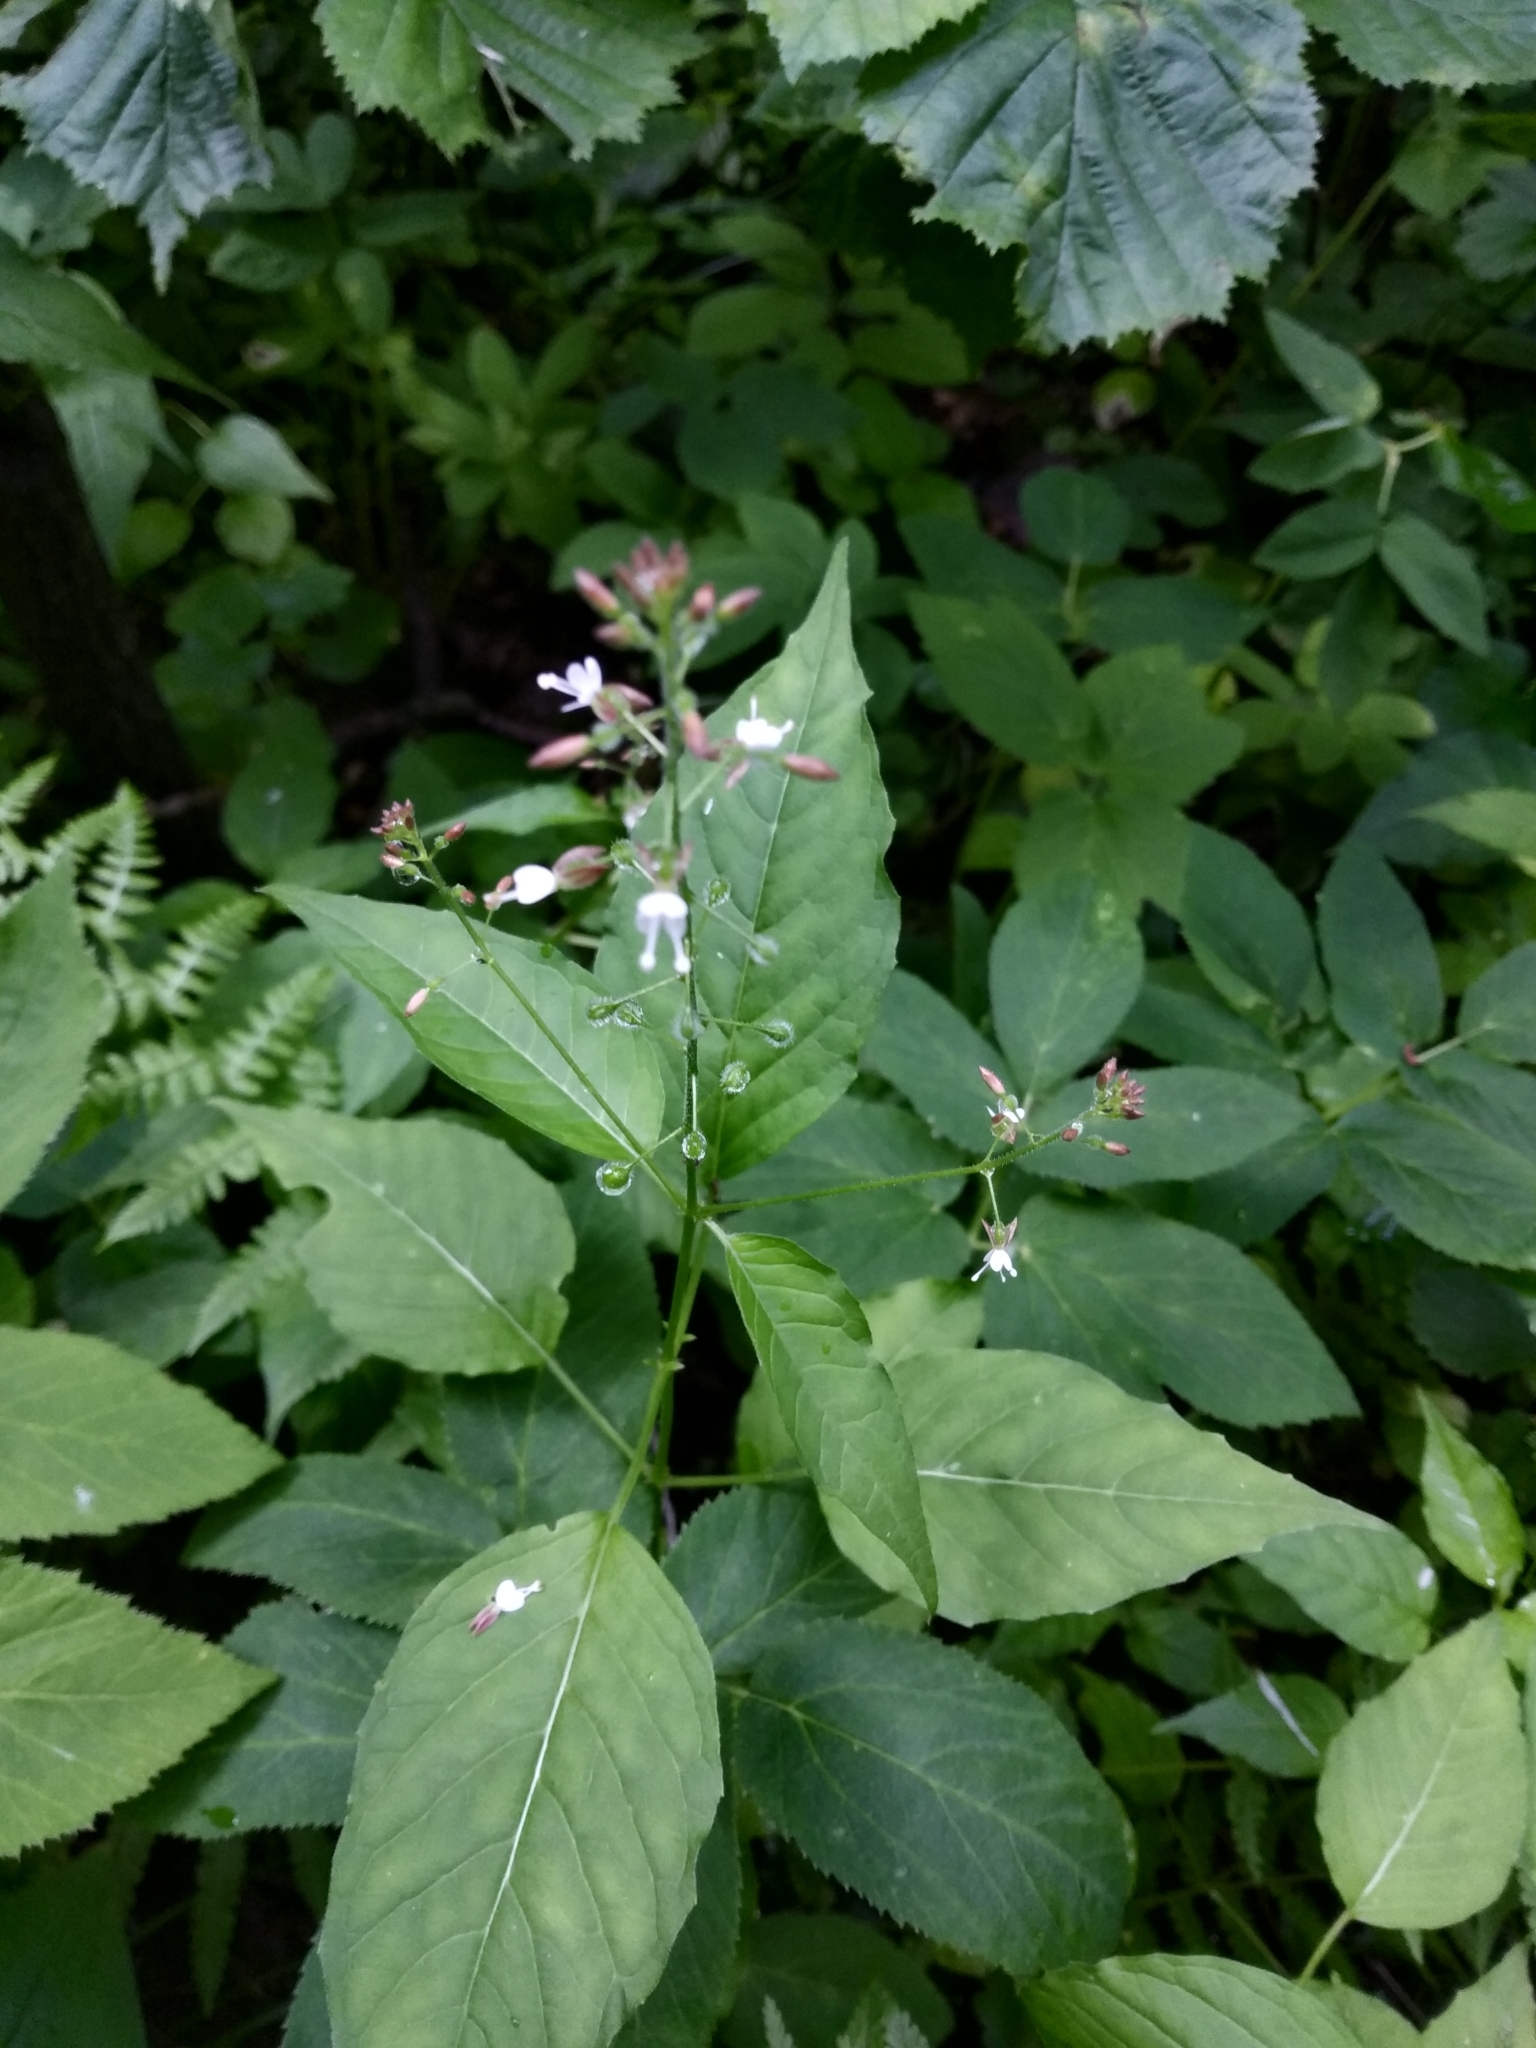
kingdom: Plantae
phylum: Tracheophyta
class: Magnoliopsida
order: Myrtales
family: Onagraceae
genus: Circaea
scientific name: Circaea lutetiana
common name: Enchanter's-nightshade
